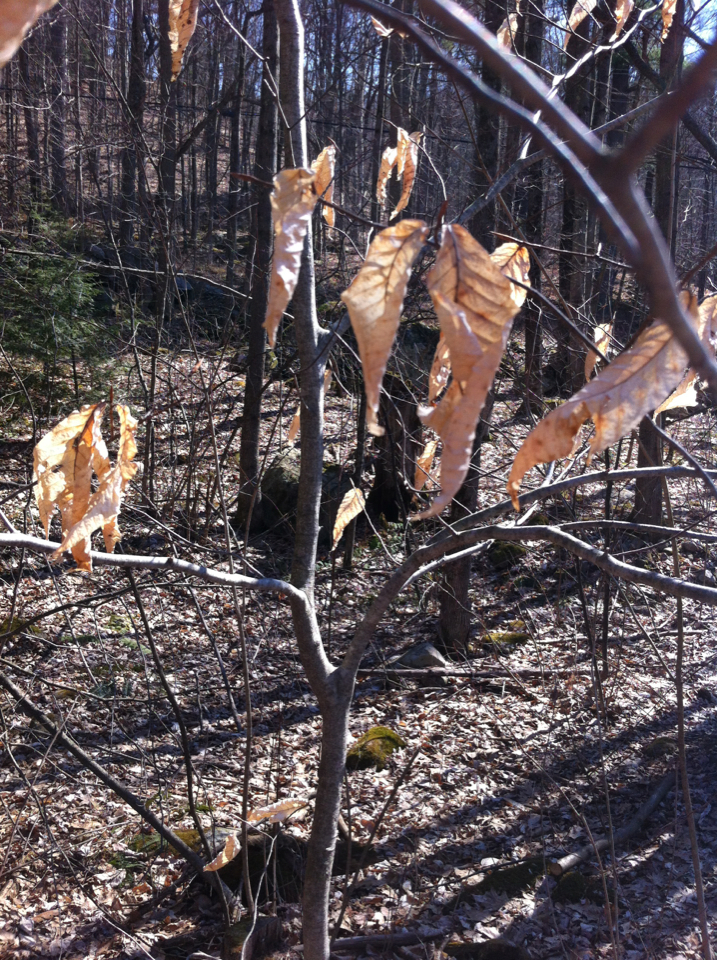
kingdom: Plantae
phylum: Tracheophyta
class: Magnoliopsida
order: Fagales
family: Fagaceae
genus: Fagus
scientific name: Fagus grandifolia
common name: American beech
